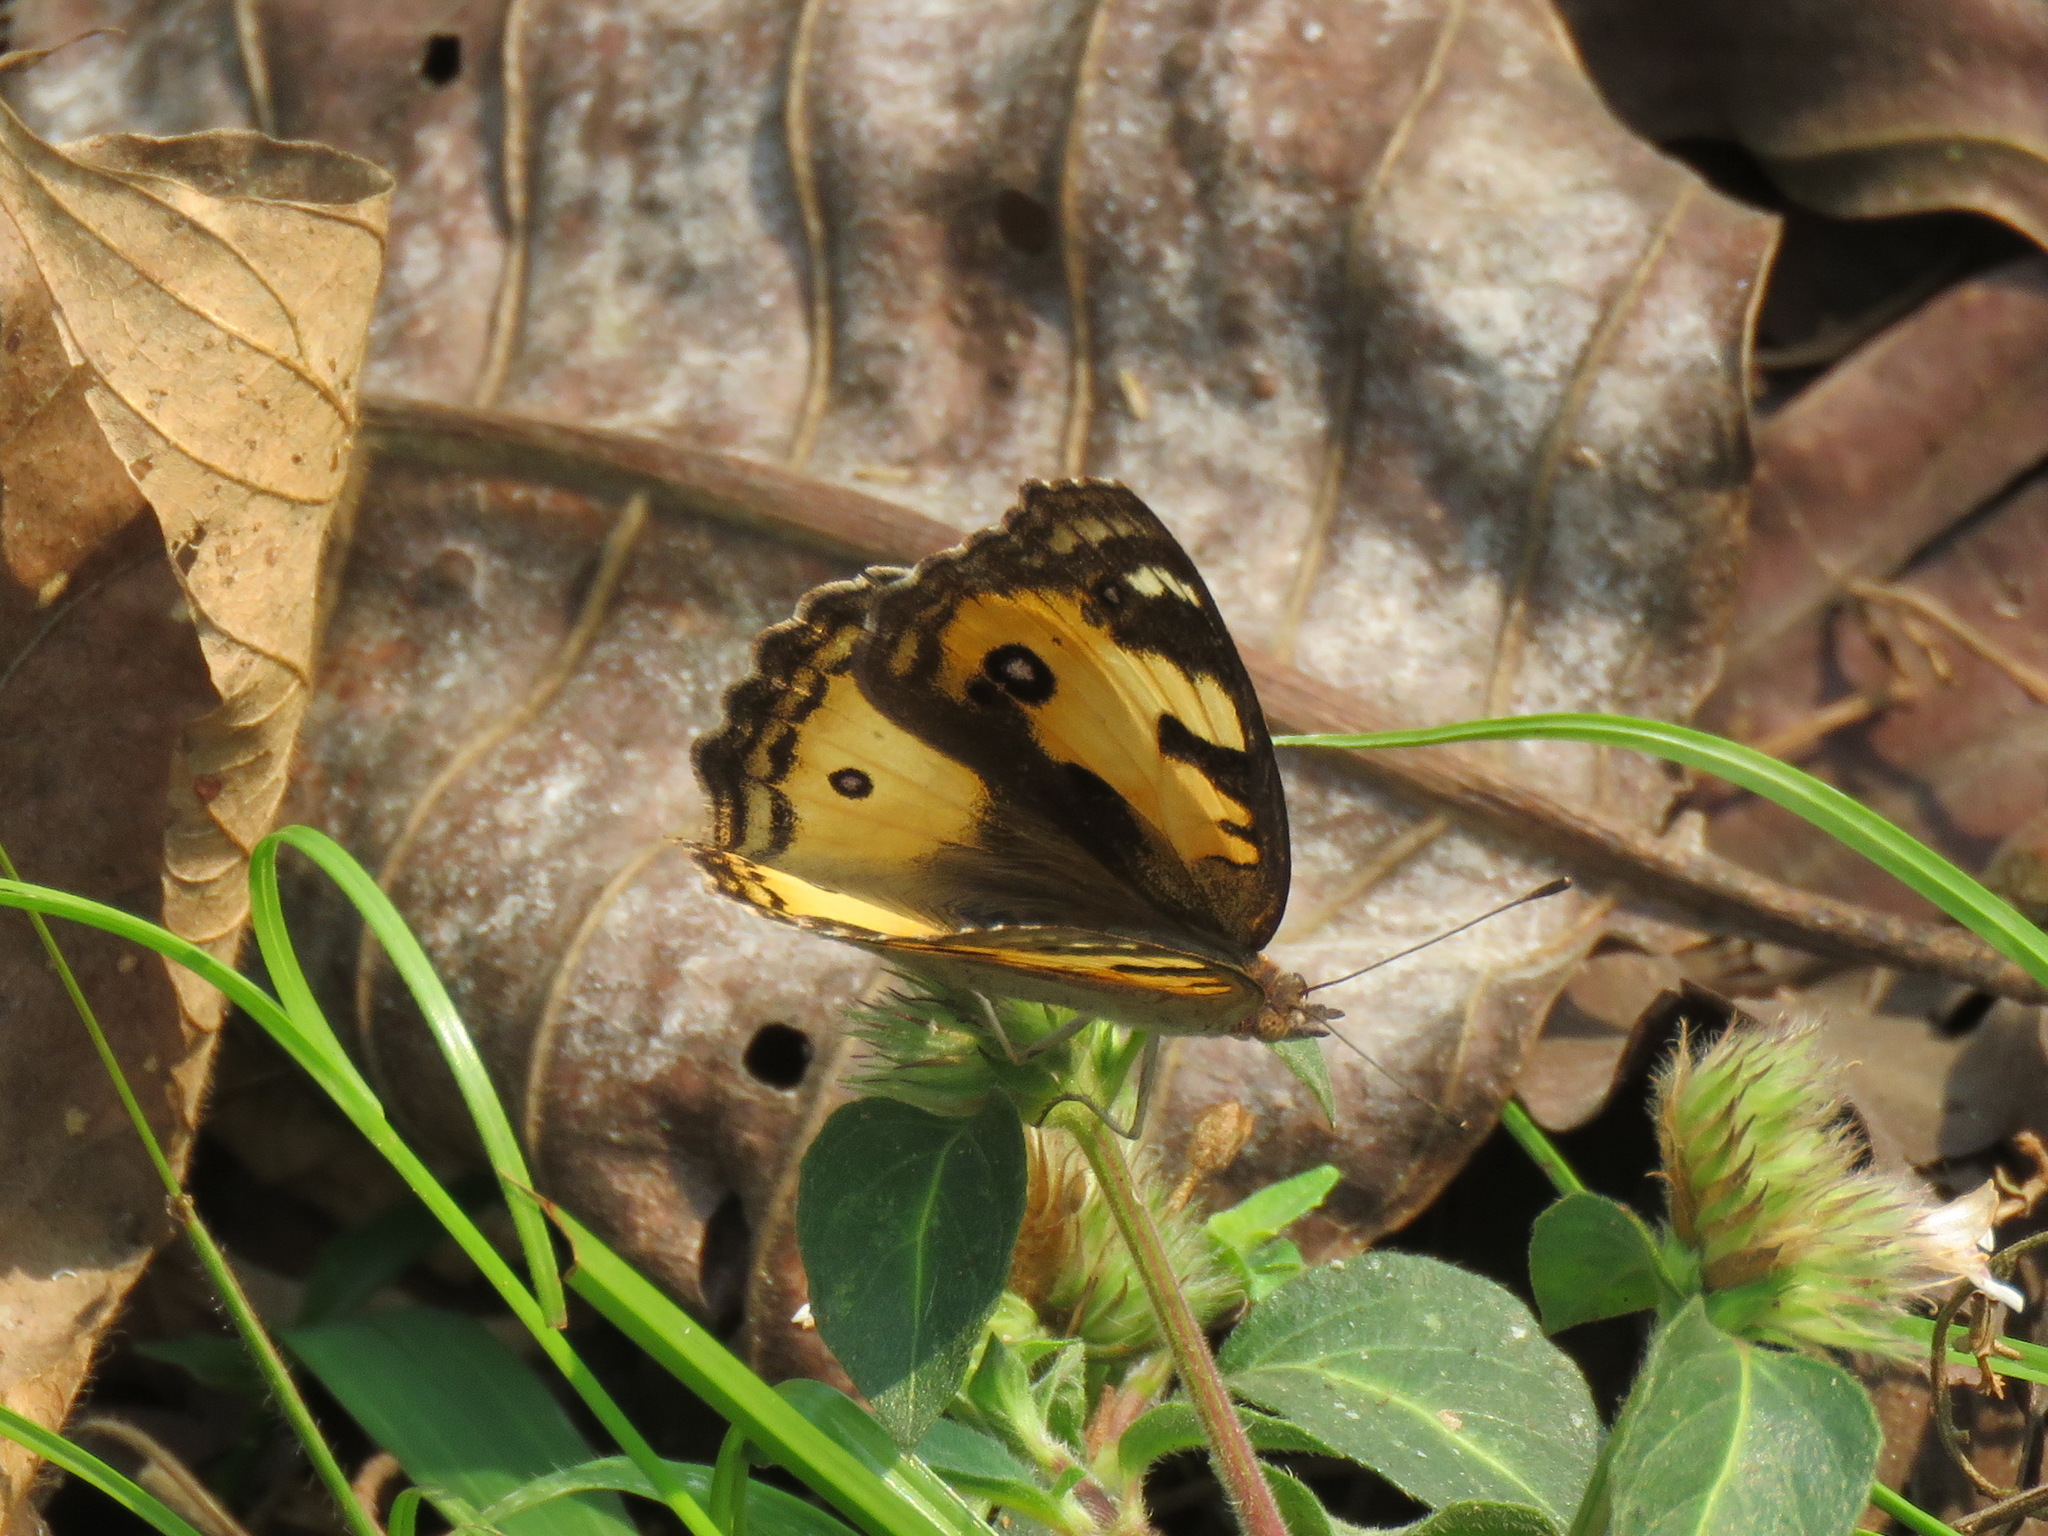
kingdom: Animalia
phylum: Arthropoda
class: Insecta
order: Lepidoptera
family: Nymphalidae
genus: Junonia
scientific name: Junonia hierta
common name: Yellow pansy
